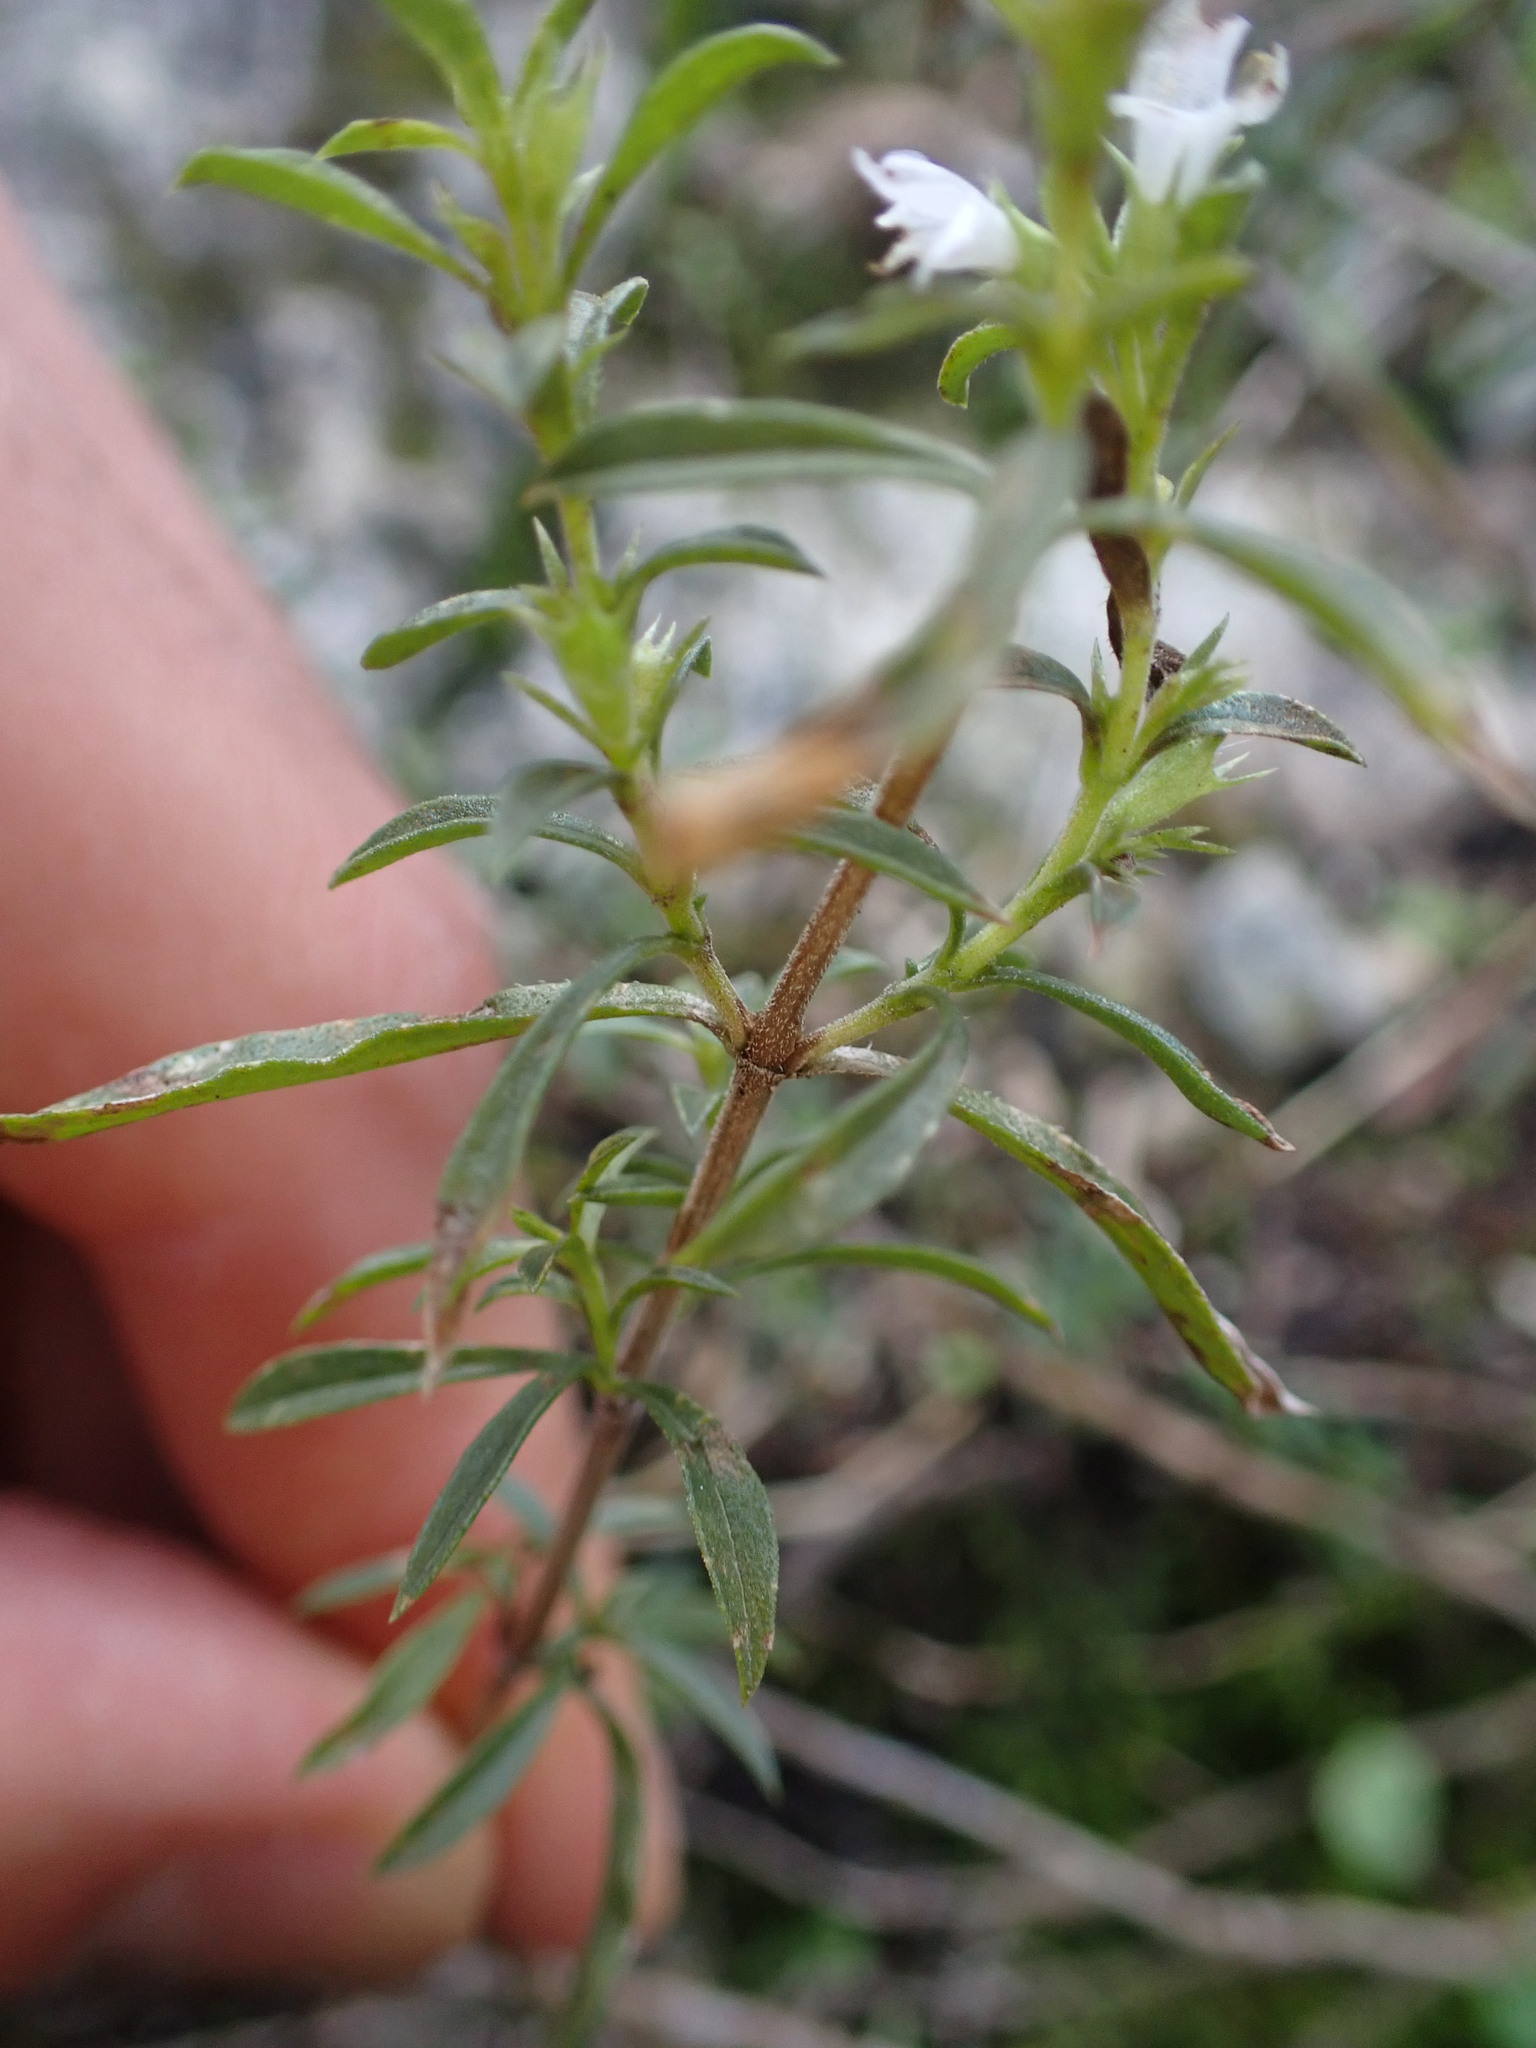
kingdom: Plantae
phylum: Tracheophyta
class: Magnoliopsida
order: Lamiales
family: Lamiaceae
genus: Satureja
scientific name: Satureja montana
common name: Winter savory
